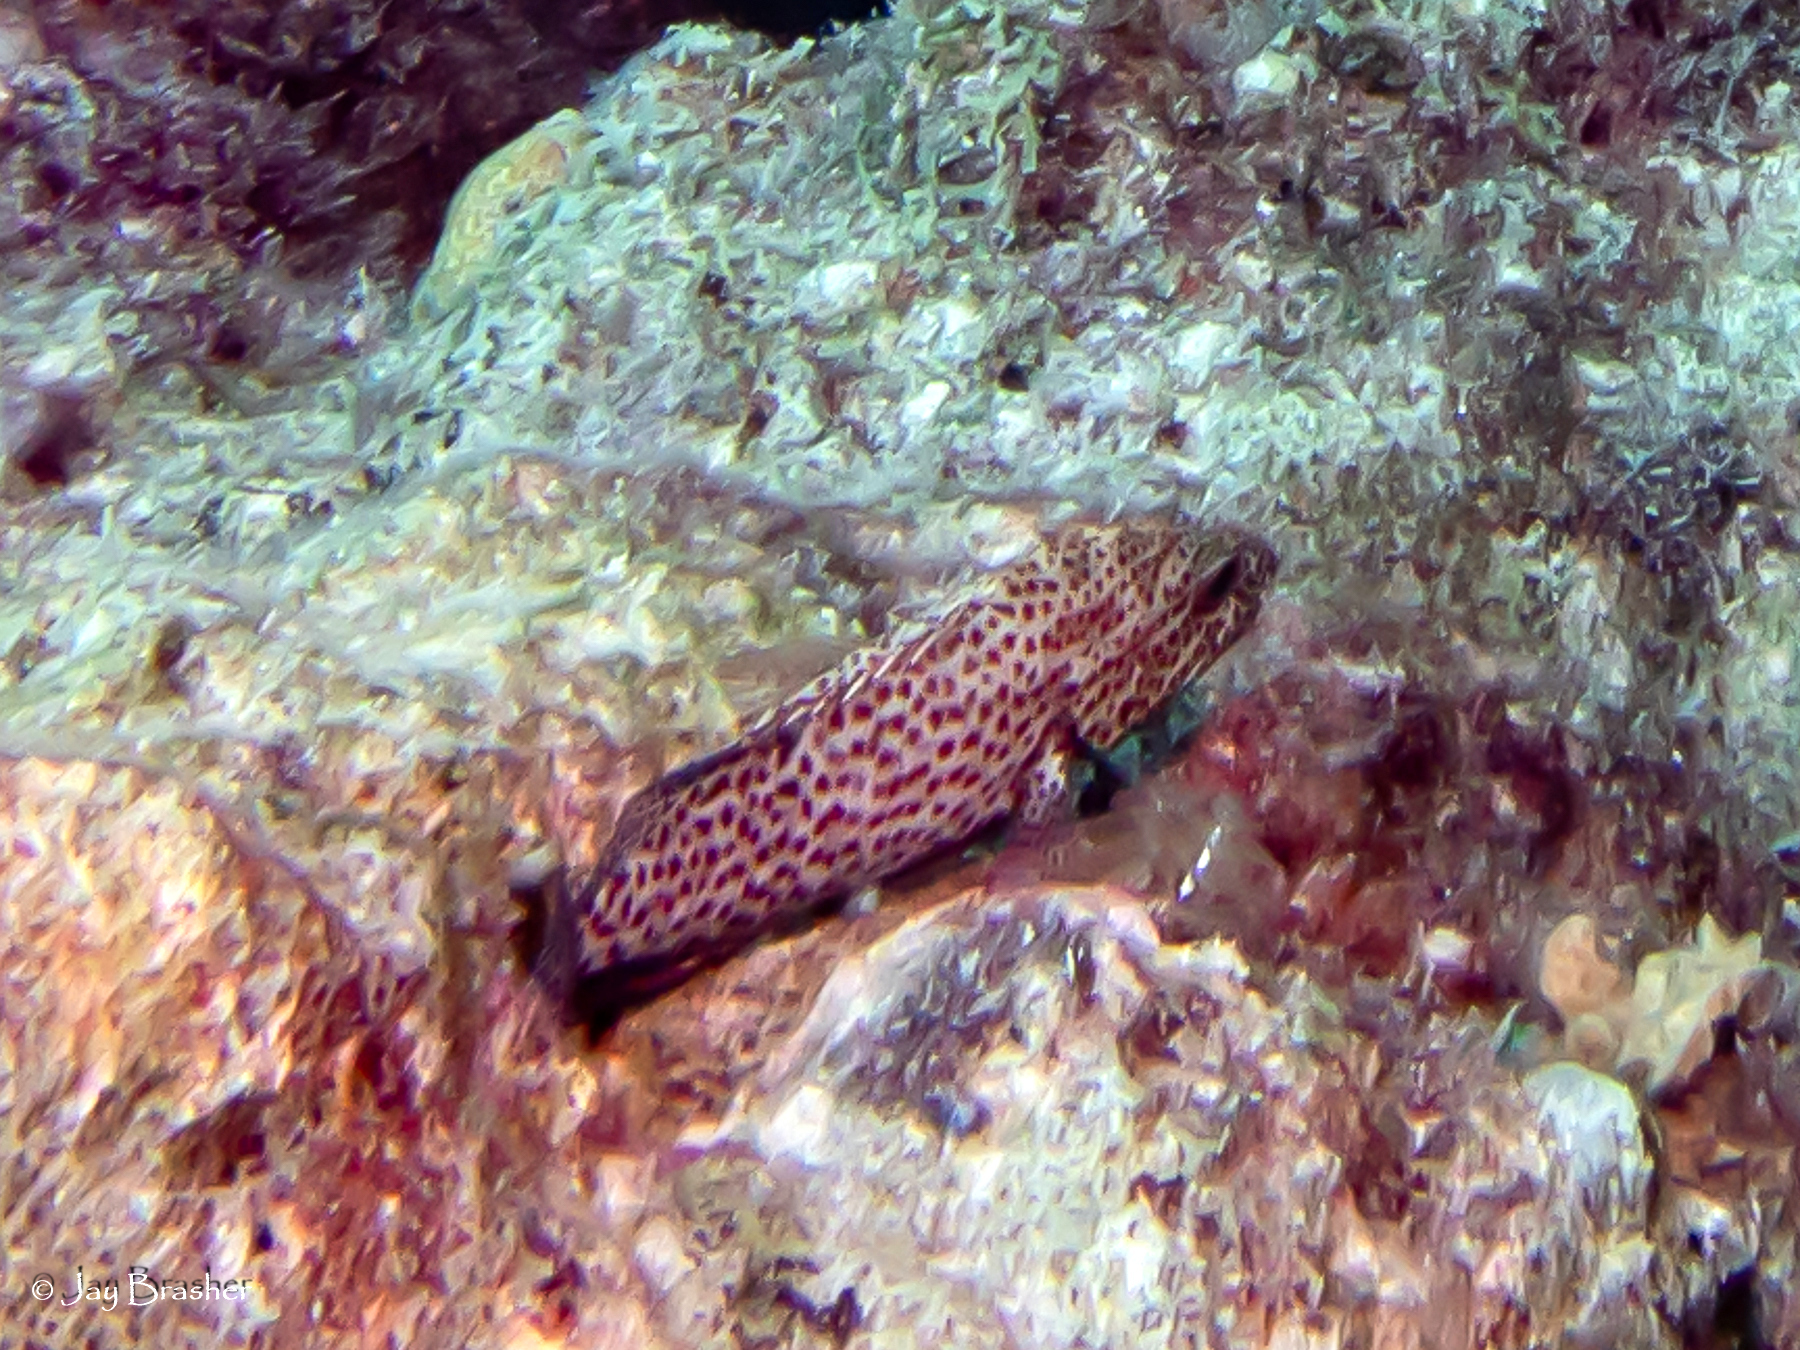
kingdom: Animalia
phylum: Chordata
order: Perciformes
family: Serranidae
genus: Cephalopholis
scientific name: Cephalopholis cruentata
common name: Graysby
